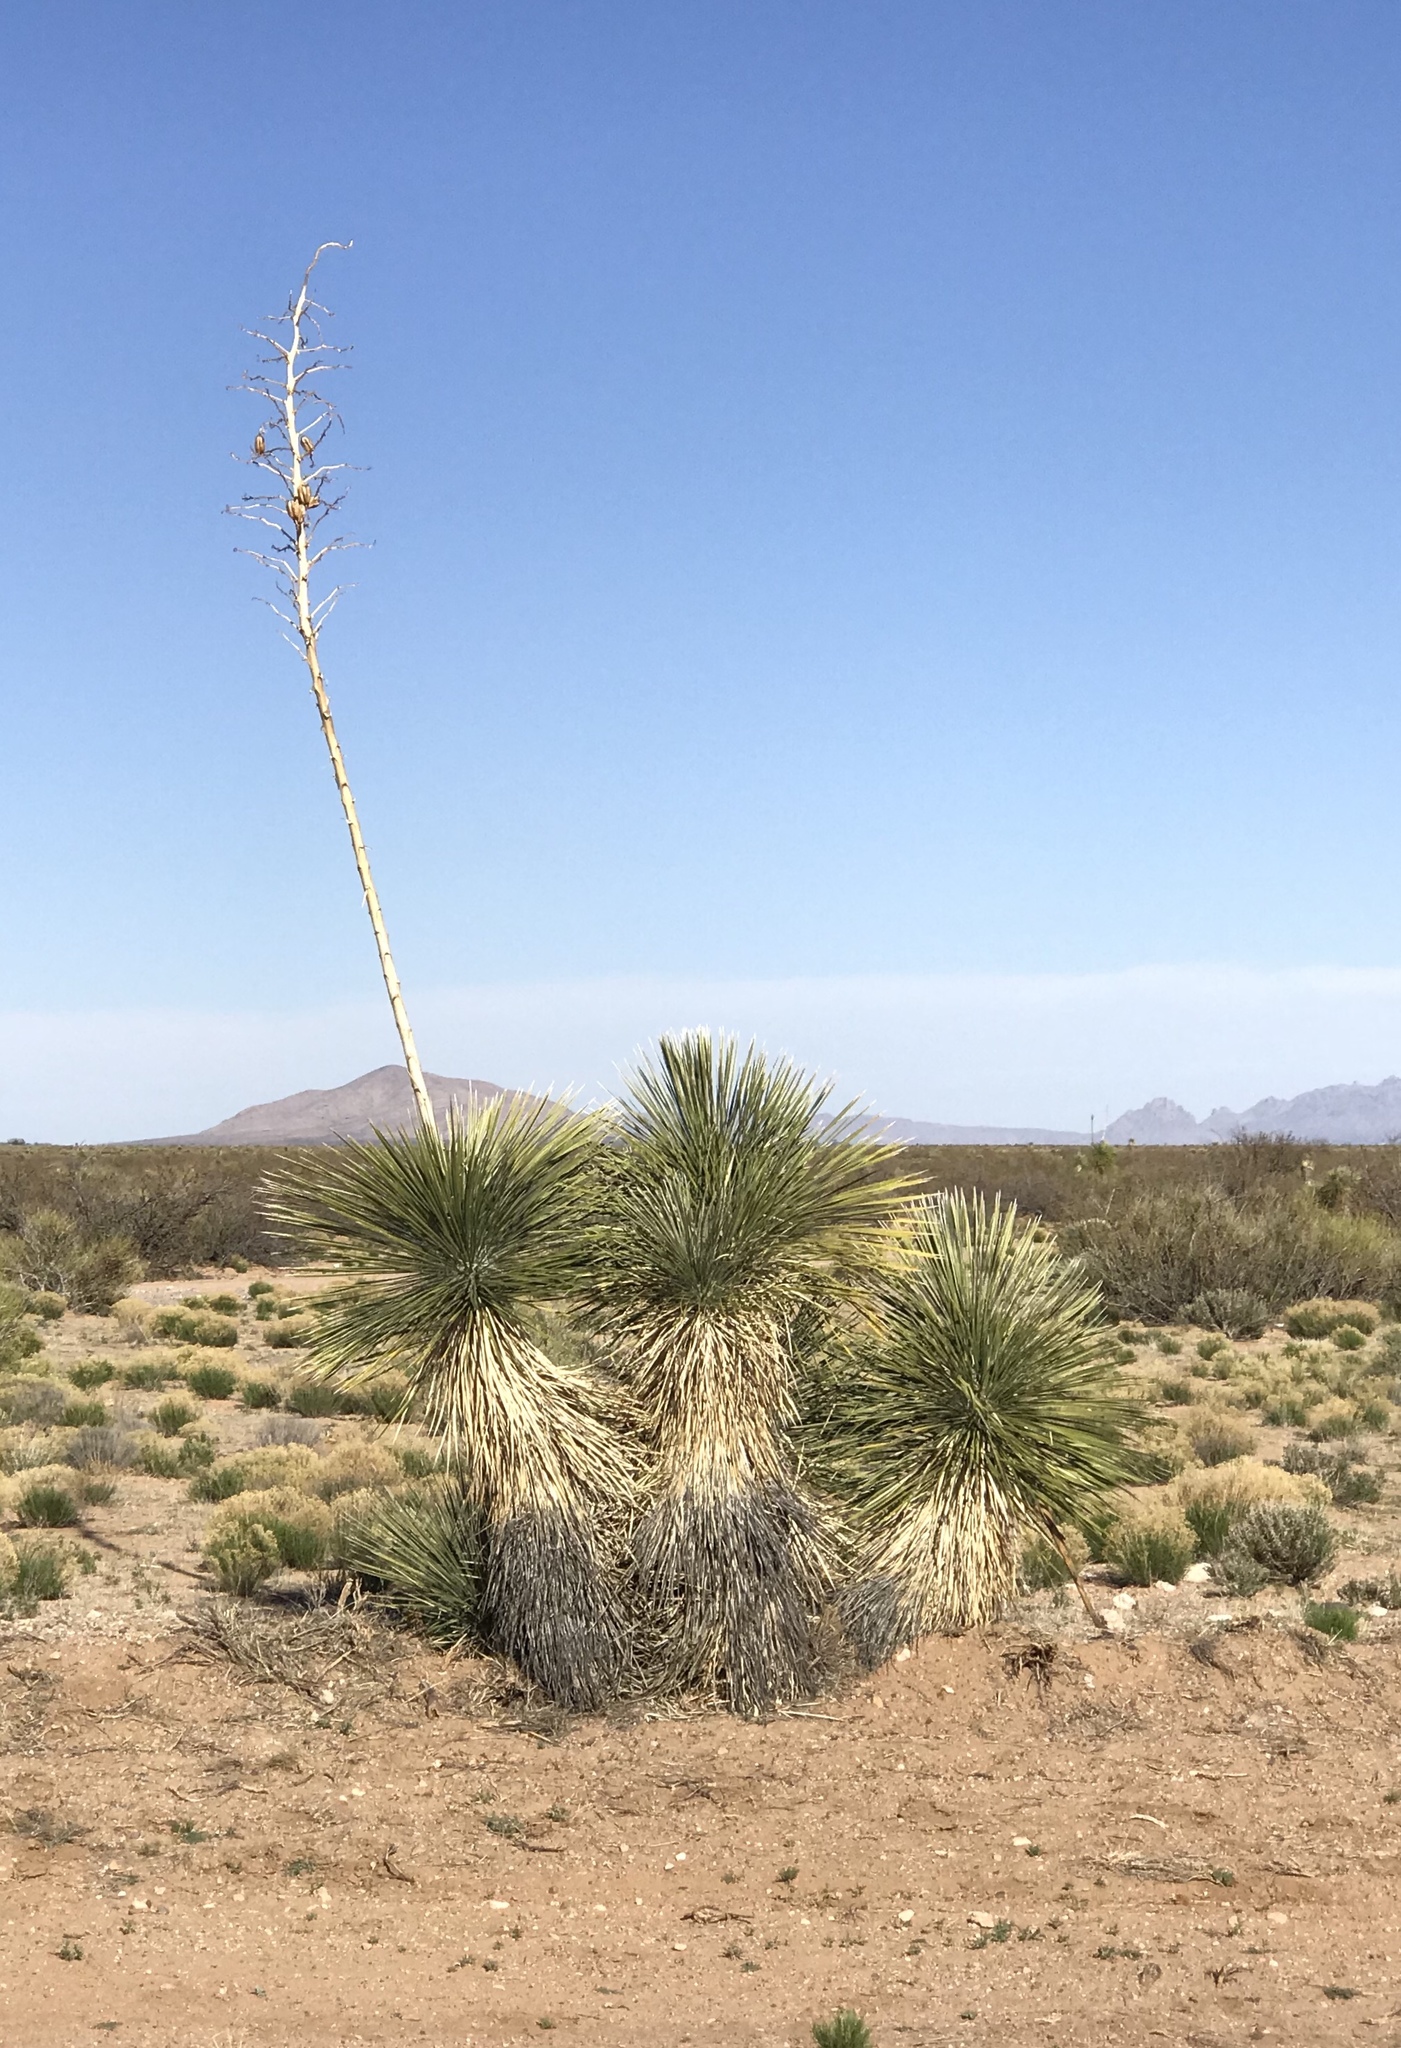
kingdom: Plantae
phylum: Tracheophyta
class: Liliopsida
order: Asparagales
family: Asparagaceae
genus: Yucca
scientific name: Yucca elata
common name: Palmella
